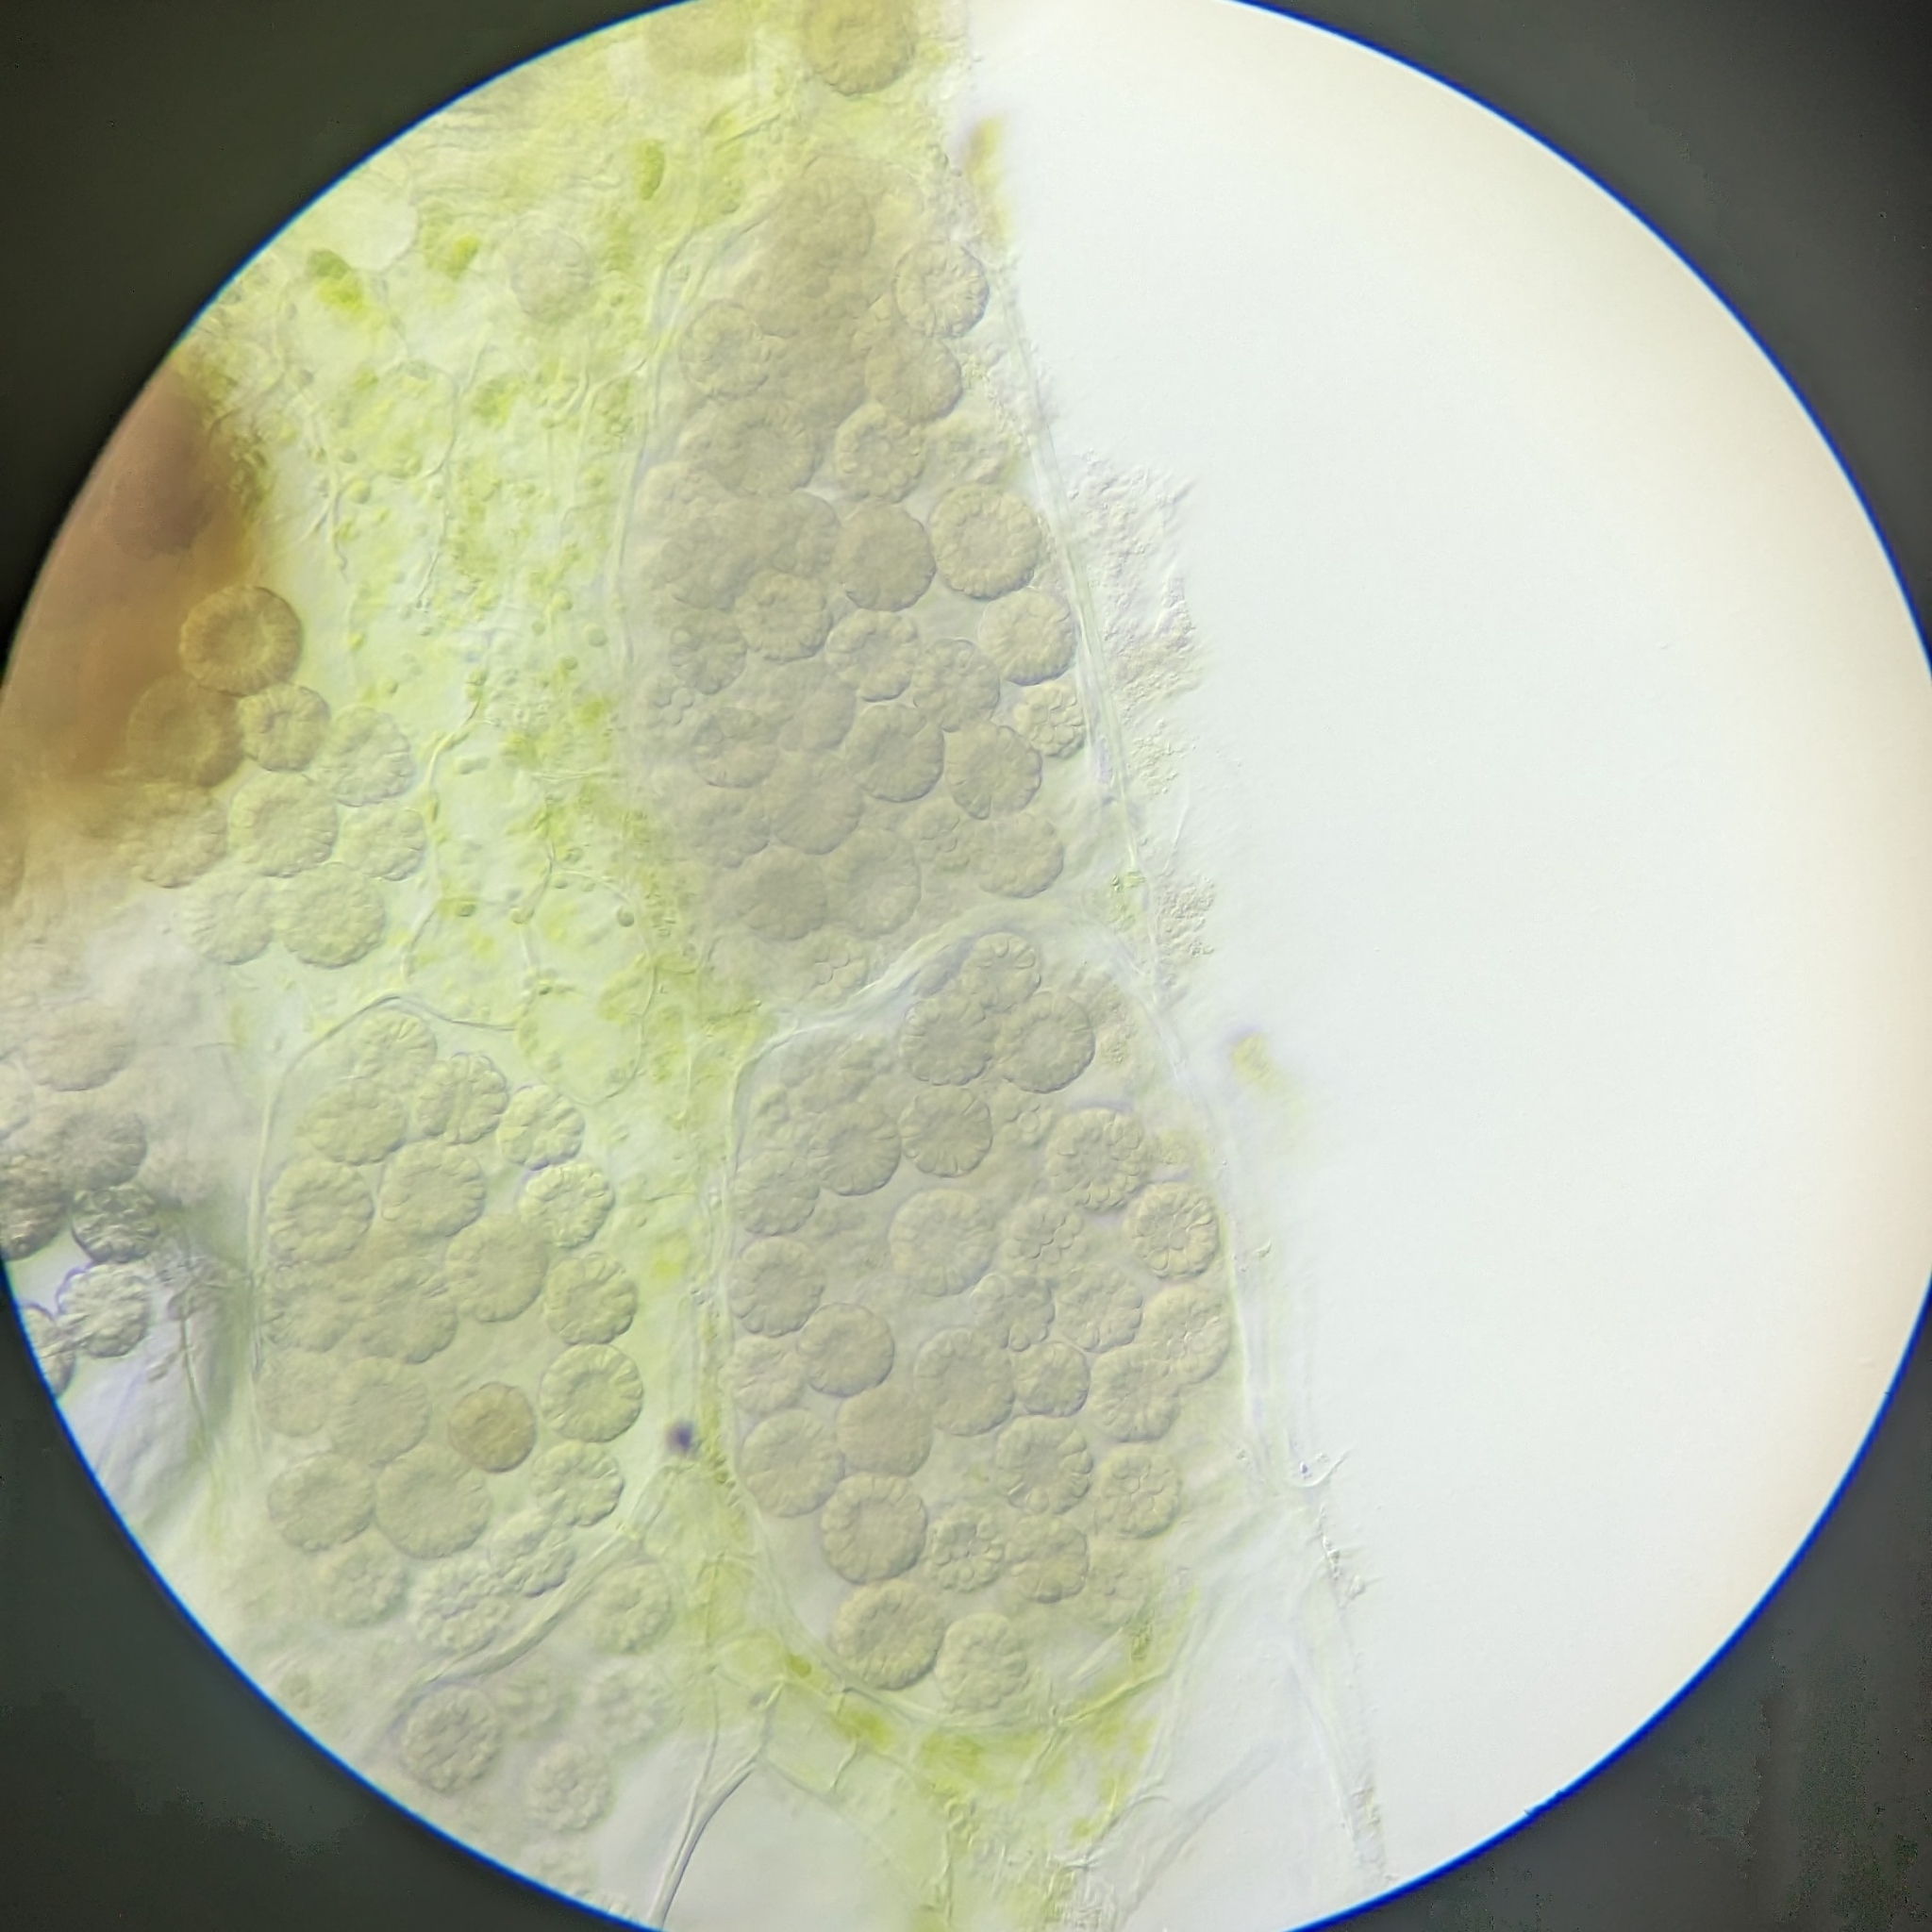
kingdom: Chromista
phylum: Cercozoa
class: Phytomyxea
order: Plasmodiophorida
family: Plasmodiophoridae
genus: Sorosphaerula
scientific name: Sorosphaerula veronicae
